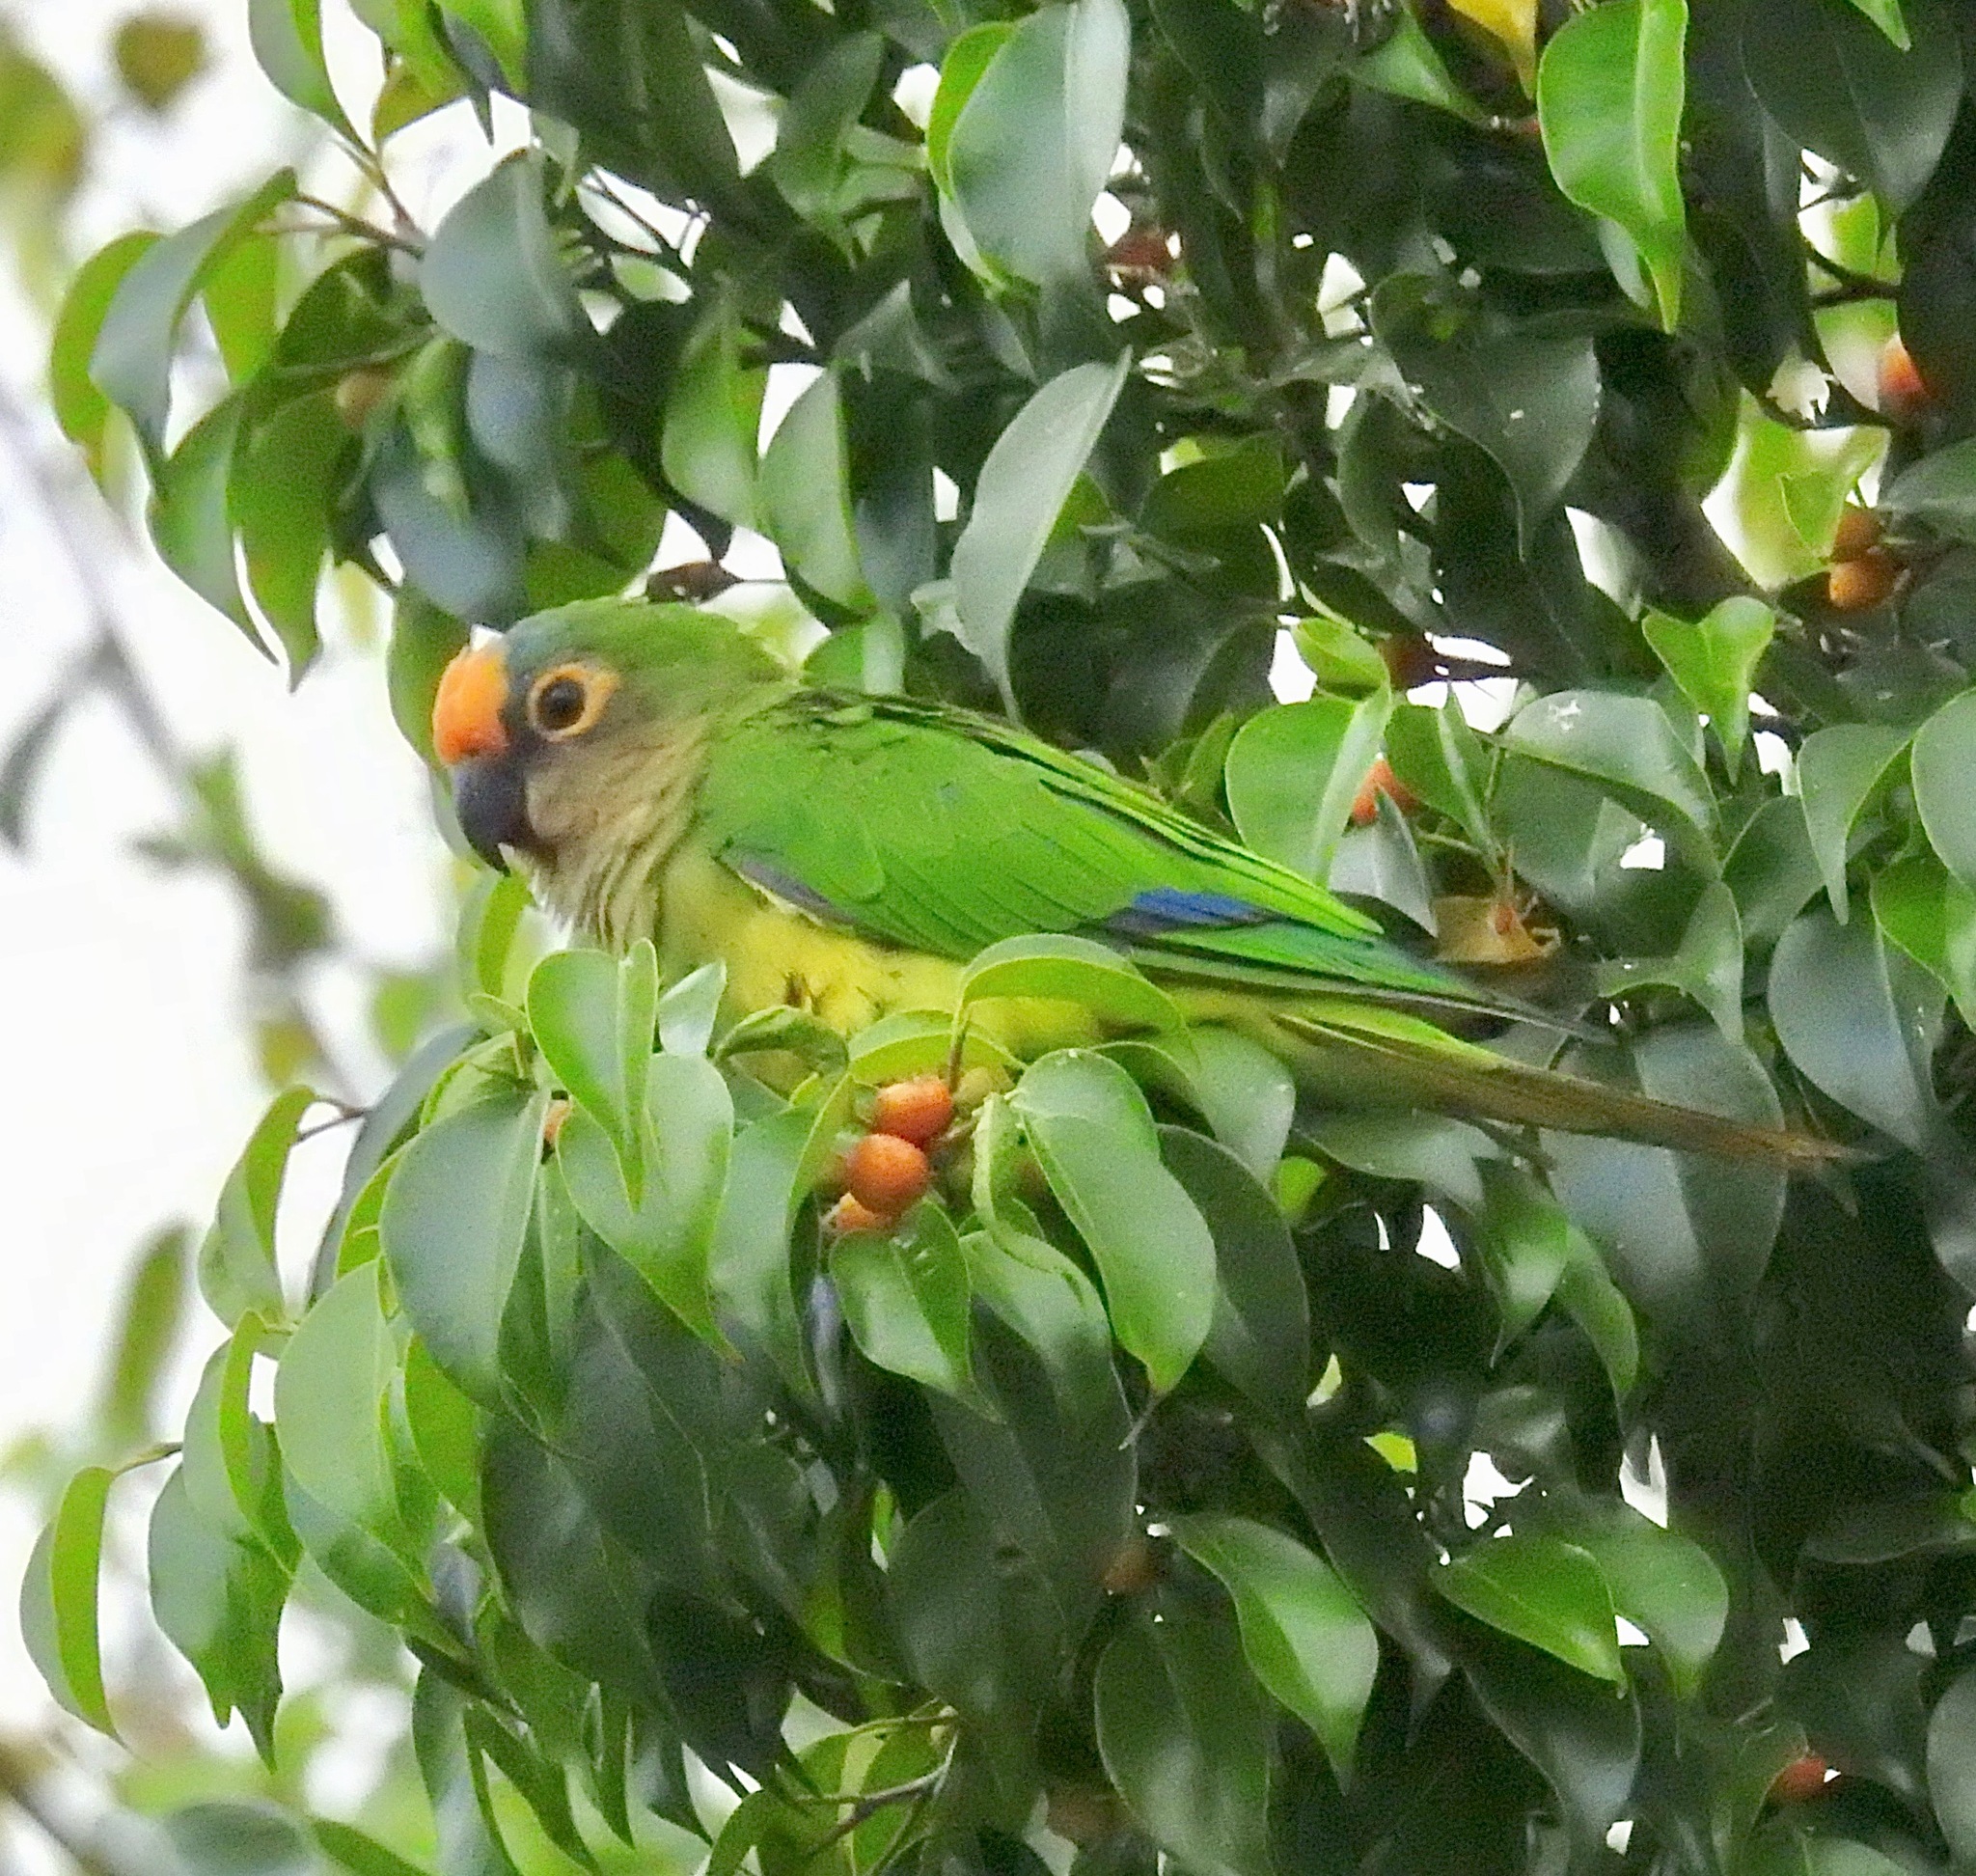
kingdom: Animalia
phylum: Chordata
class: Aves
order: Psittaciformes
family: Psittacidae
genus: Aratinga
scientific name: Aratinga aurea
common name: Peach-fronted parakeet
